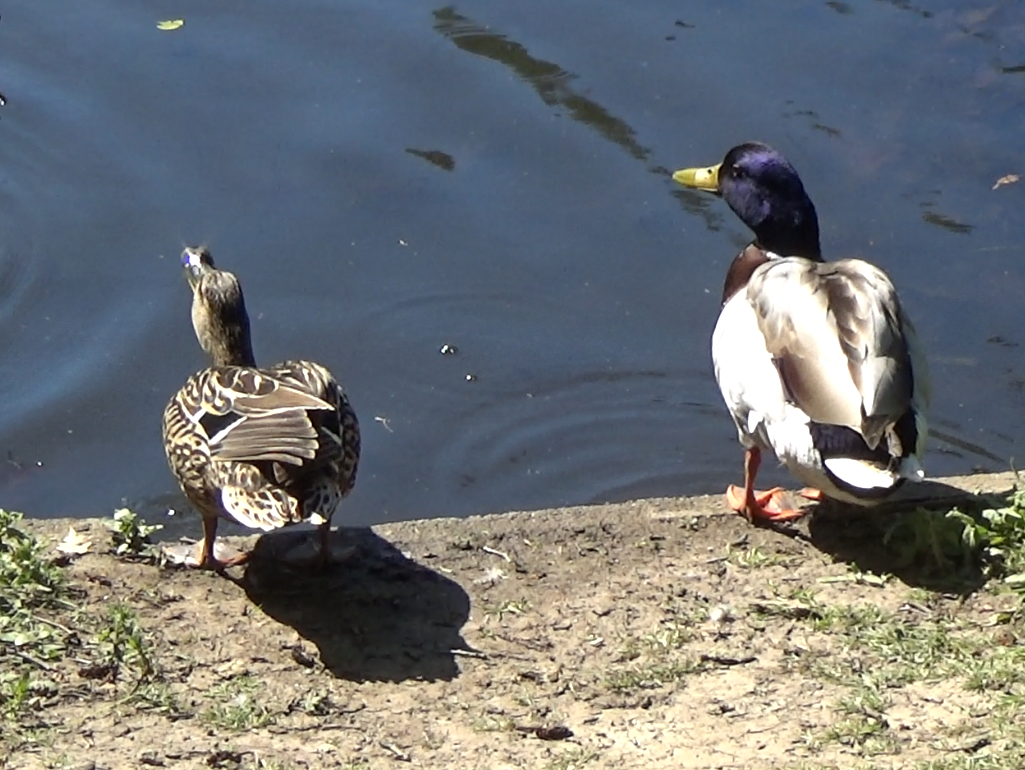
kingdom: Animalia
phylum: Chordata
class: Aves
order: Anseriformes
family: Anatidae
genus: Anas
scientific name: Anas platyrhynchos
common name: Mallard
